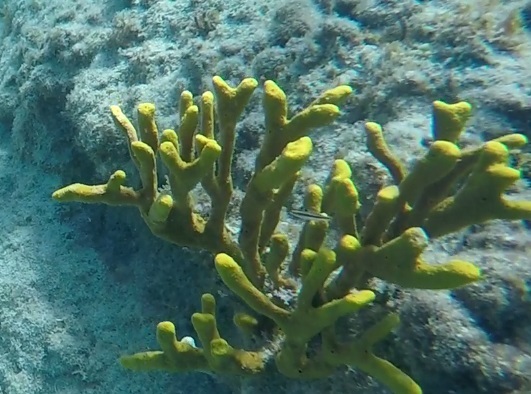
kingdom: Animalia
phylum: Porifera
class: Demospongiae
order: Verongiida
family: Aplysinidae
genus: Aplysina
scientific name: Aplysina fulva
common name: Scattered pore rope sponge
